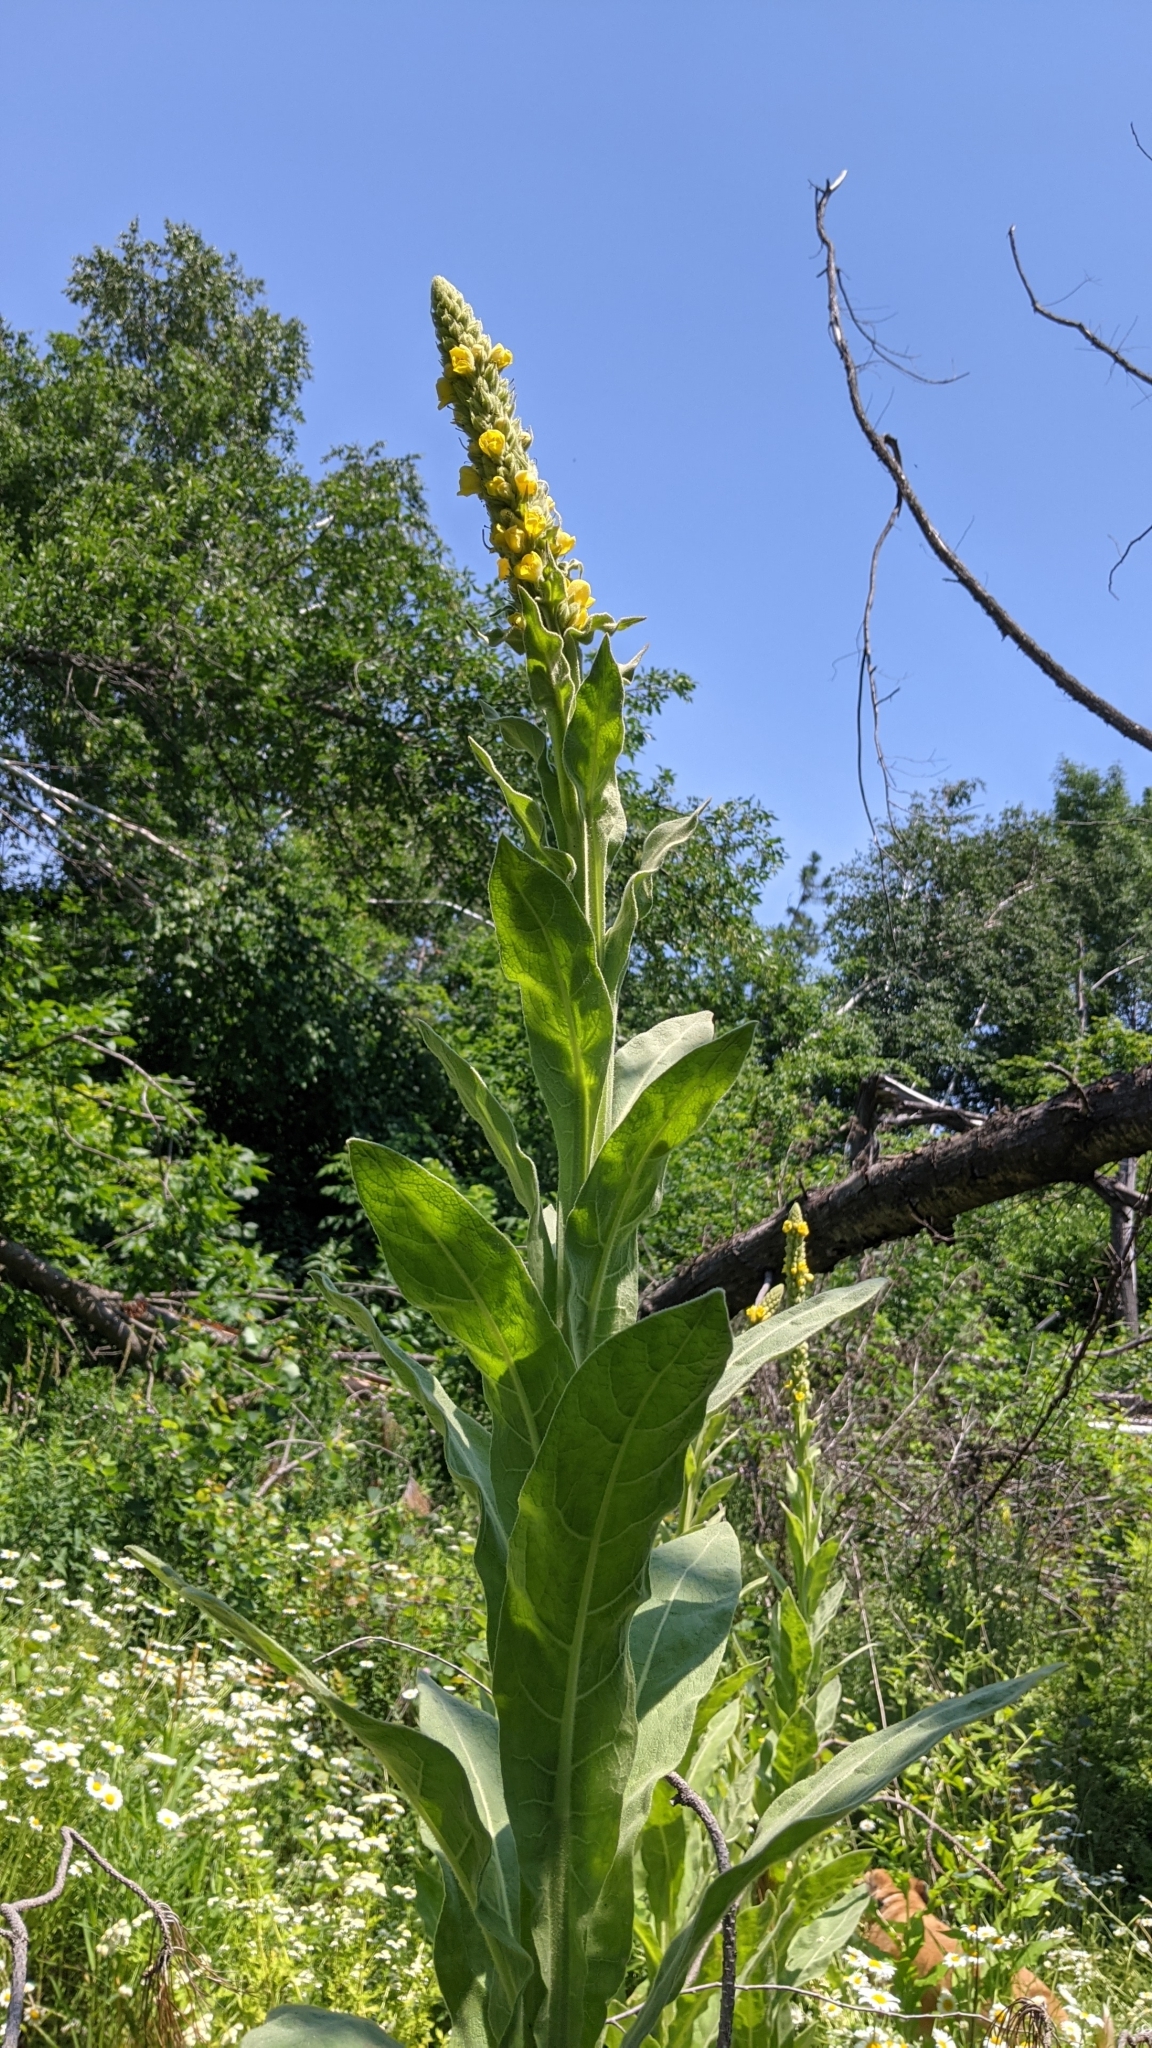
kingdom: Plantae
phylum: Tracheophyta
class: Magnoliopsida
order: Lamiales
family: Scrophulariaceae
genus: Verbascum
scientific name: Verbascum thapsus
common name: Common mullein
